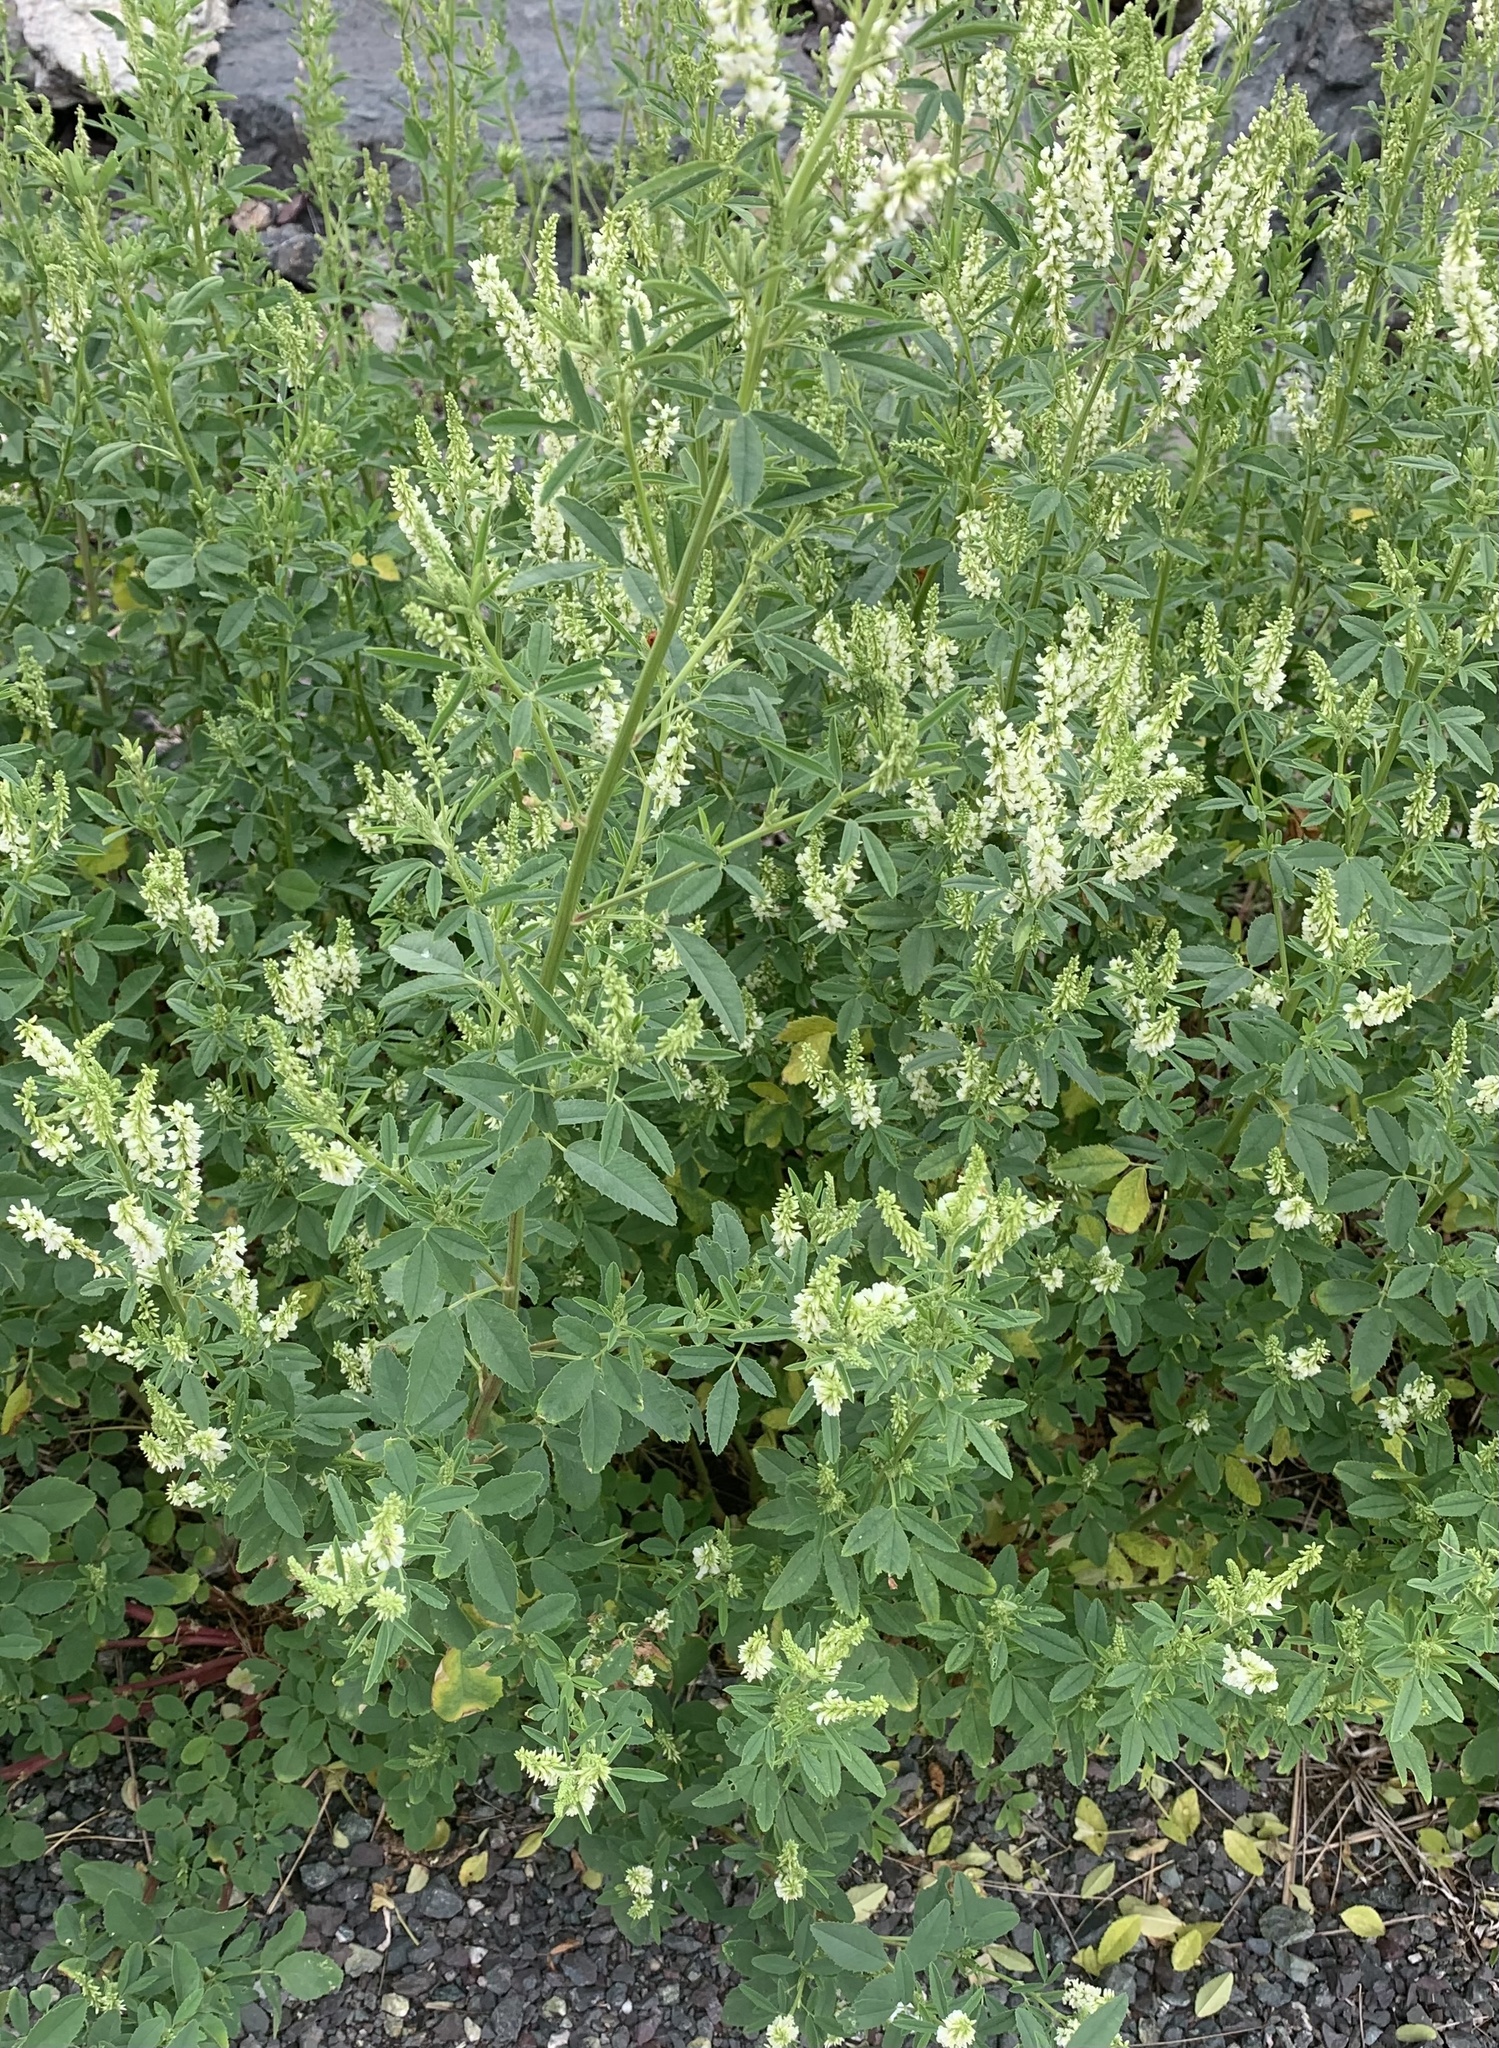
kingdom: Plantae
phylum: Tracheophyta
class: Magnoliopsida
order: Fabales
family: Fabaceae
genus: Melilotus
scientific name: Melilotus albus
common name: White melilot
